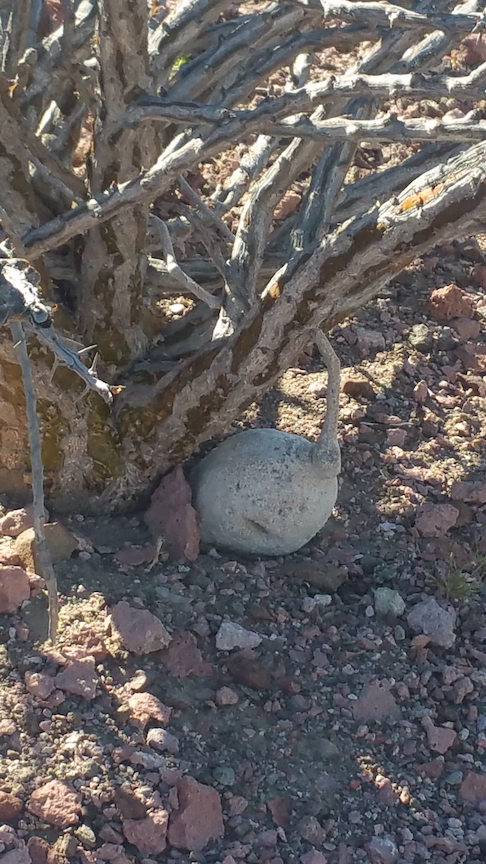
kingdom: Plantae
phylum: Tracheophyta
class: Magnoliopsida
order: Cucurbitales
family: Cucurbitaceae
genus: Ibervillea
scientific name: Ibervillea sonorae
